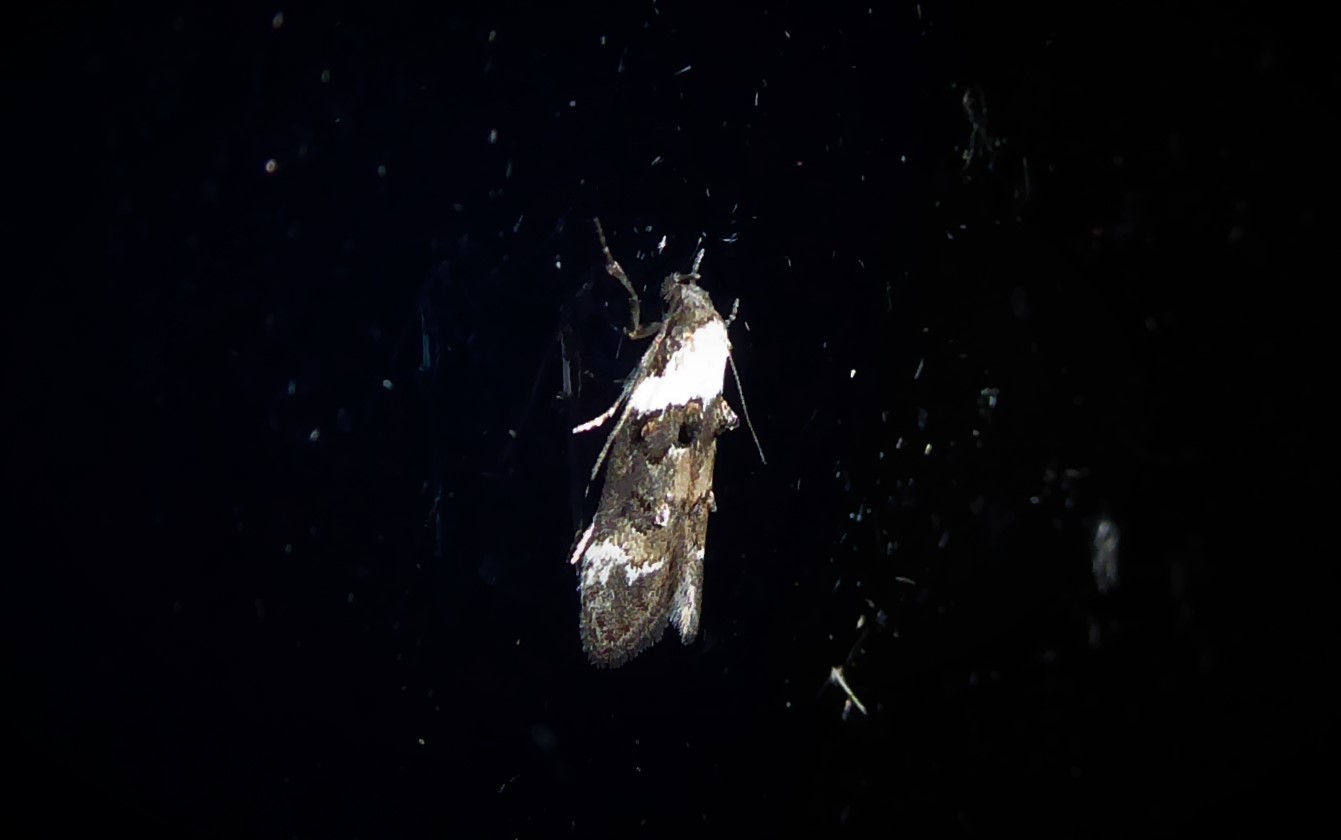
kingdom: Animalia
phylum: Arthropoda
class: Insecta
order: Lepidoptera
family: Oecophoridae
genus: Trachypepla
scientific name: Trachypepla conspicuella
